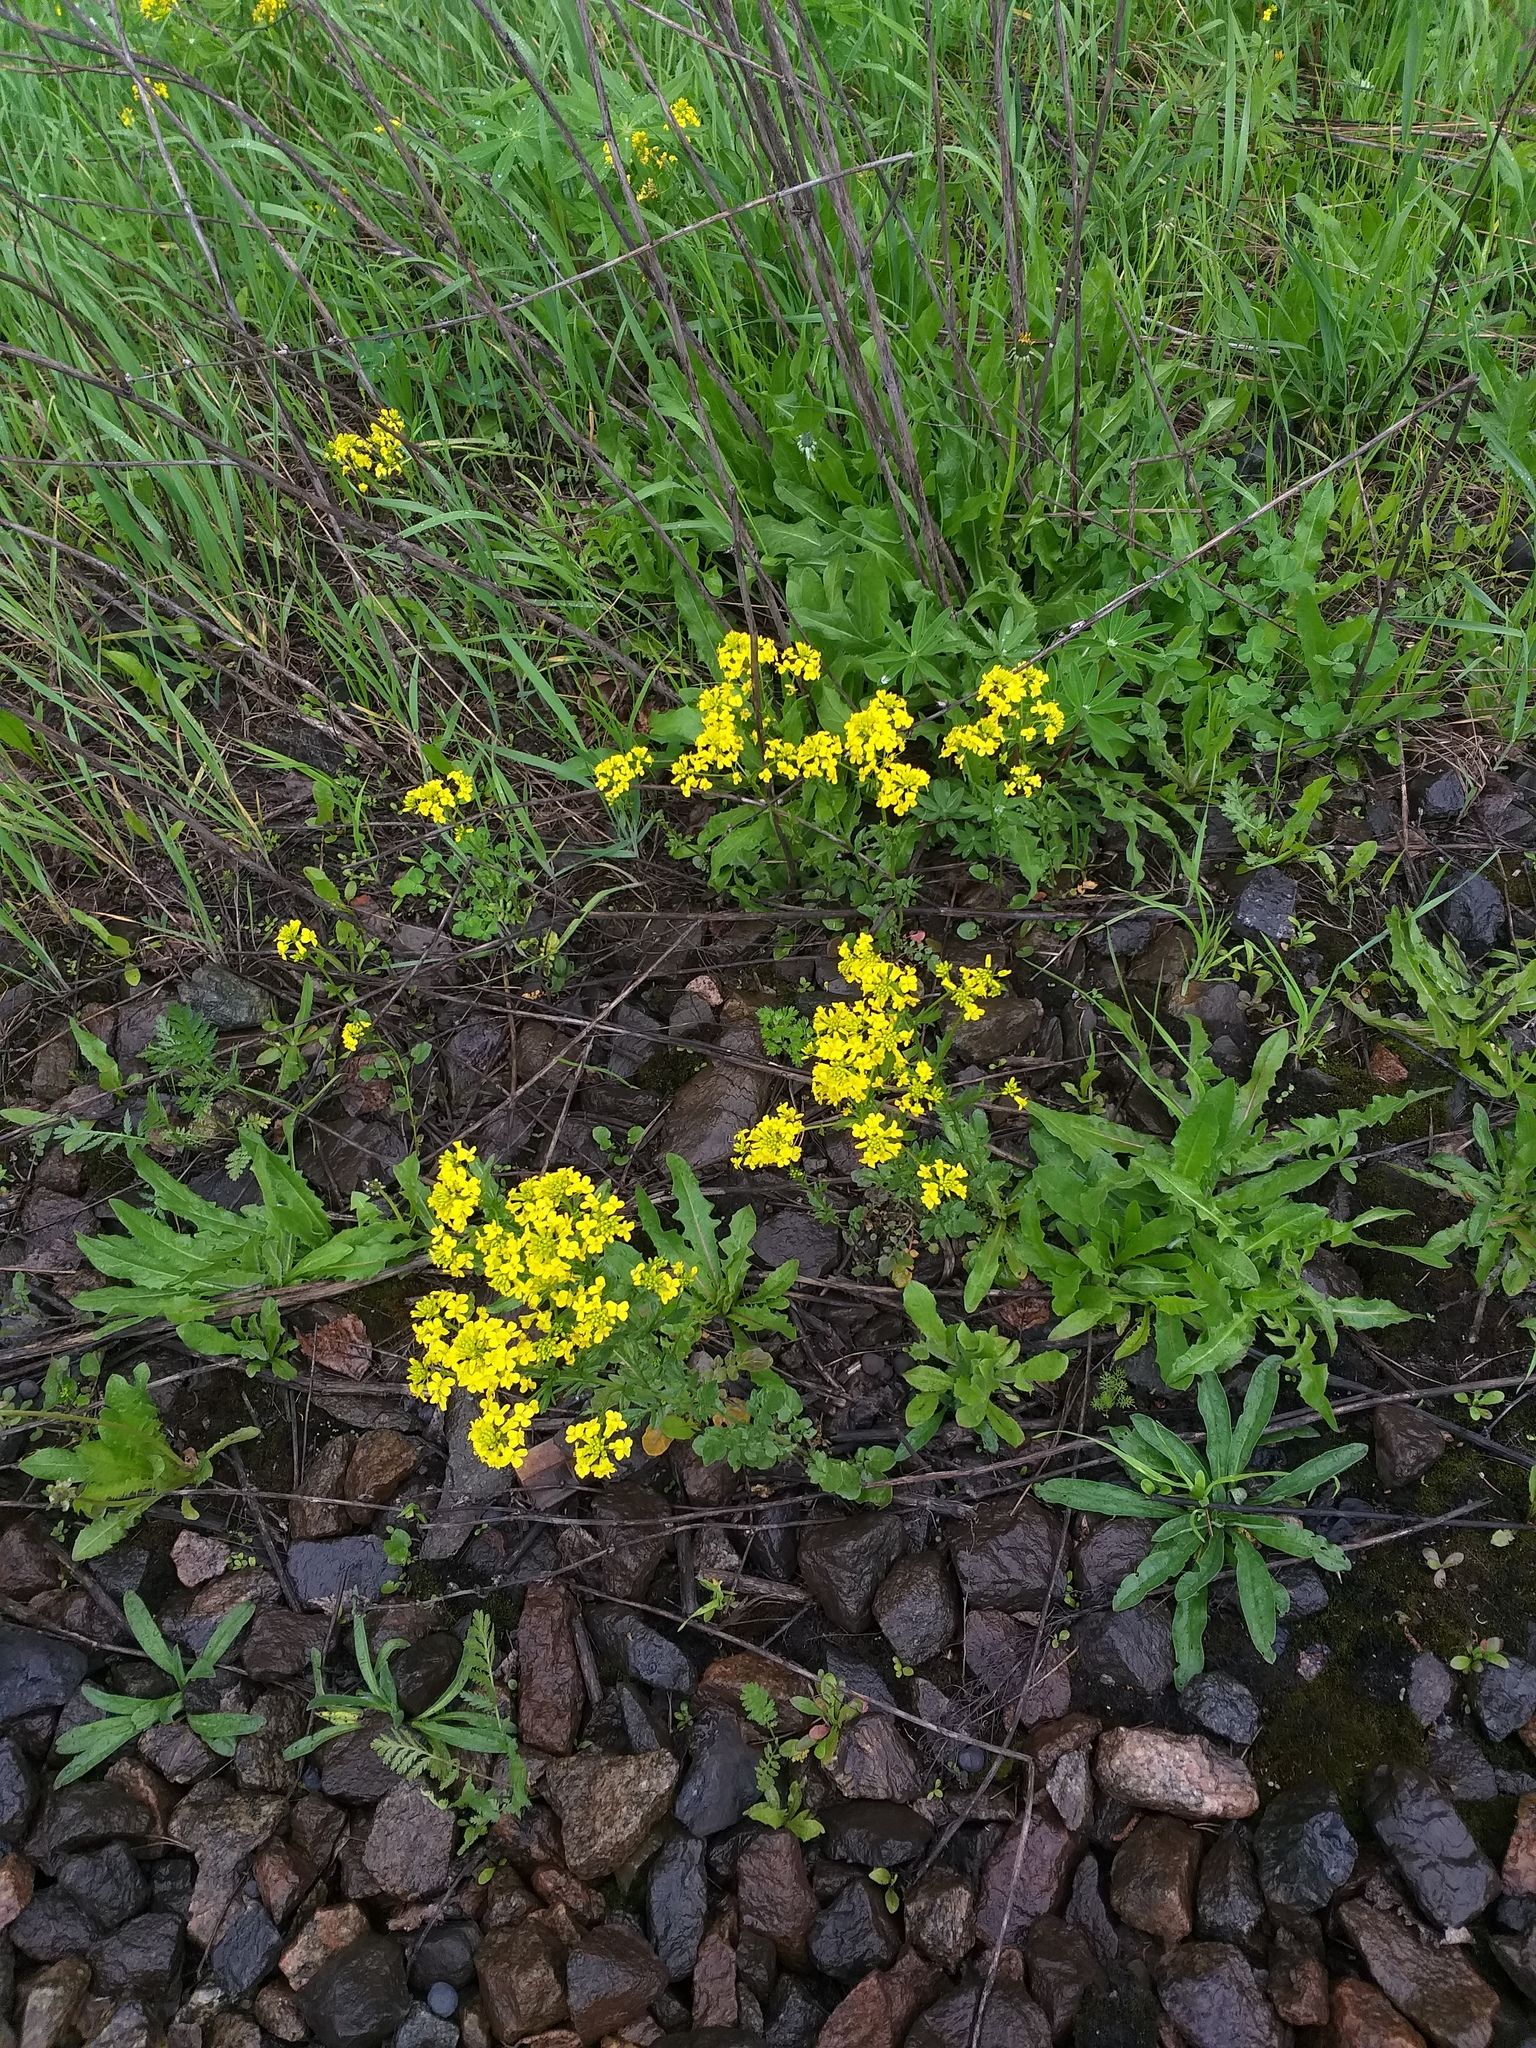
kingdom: Plantae
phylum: Tracheophyta
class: Magnoliopsida
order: Brassicales
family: Brassicaceae
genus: Barbarea
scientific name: Barbarea vulgaris
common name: Cressy-greens
